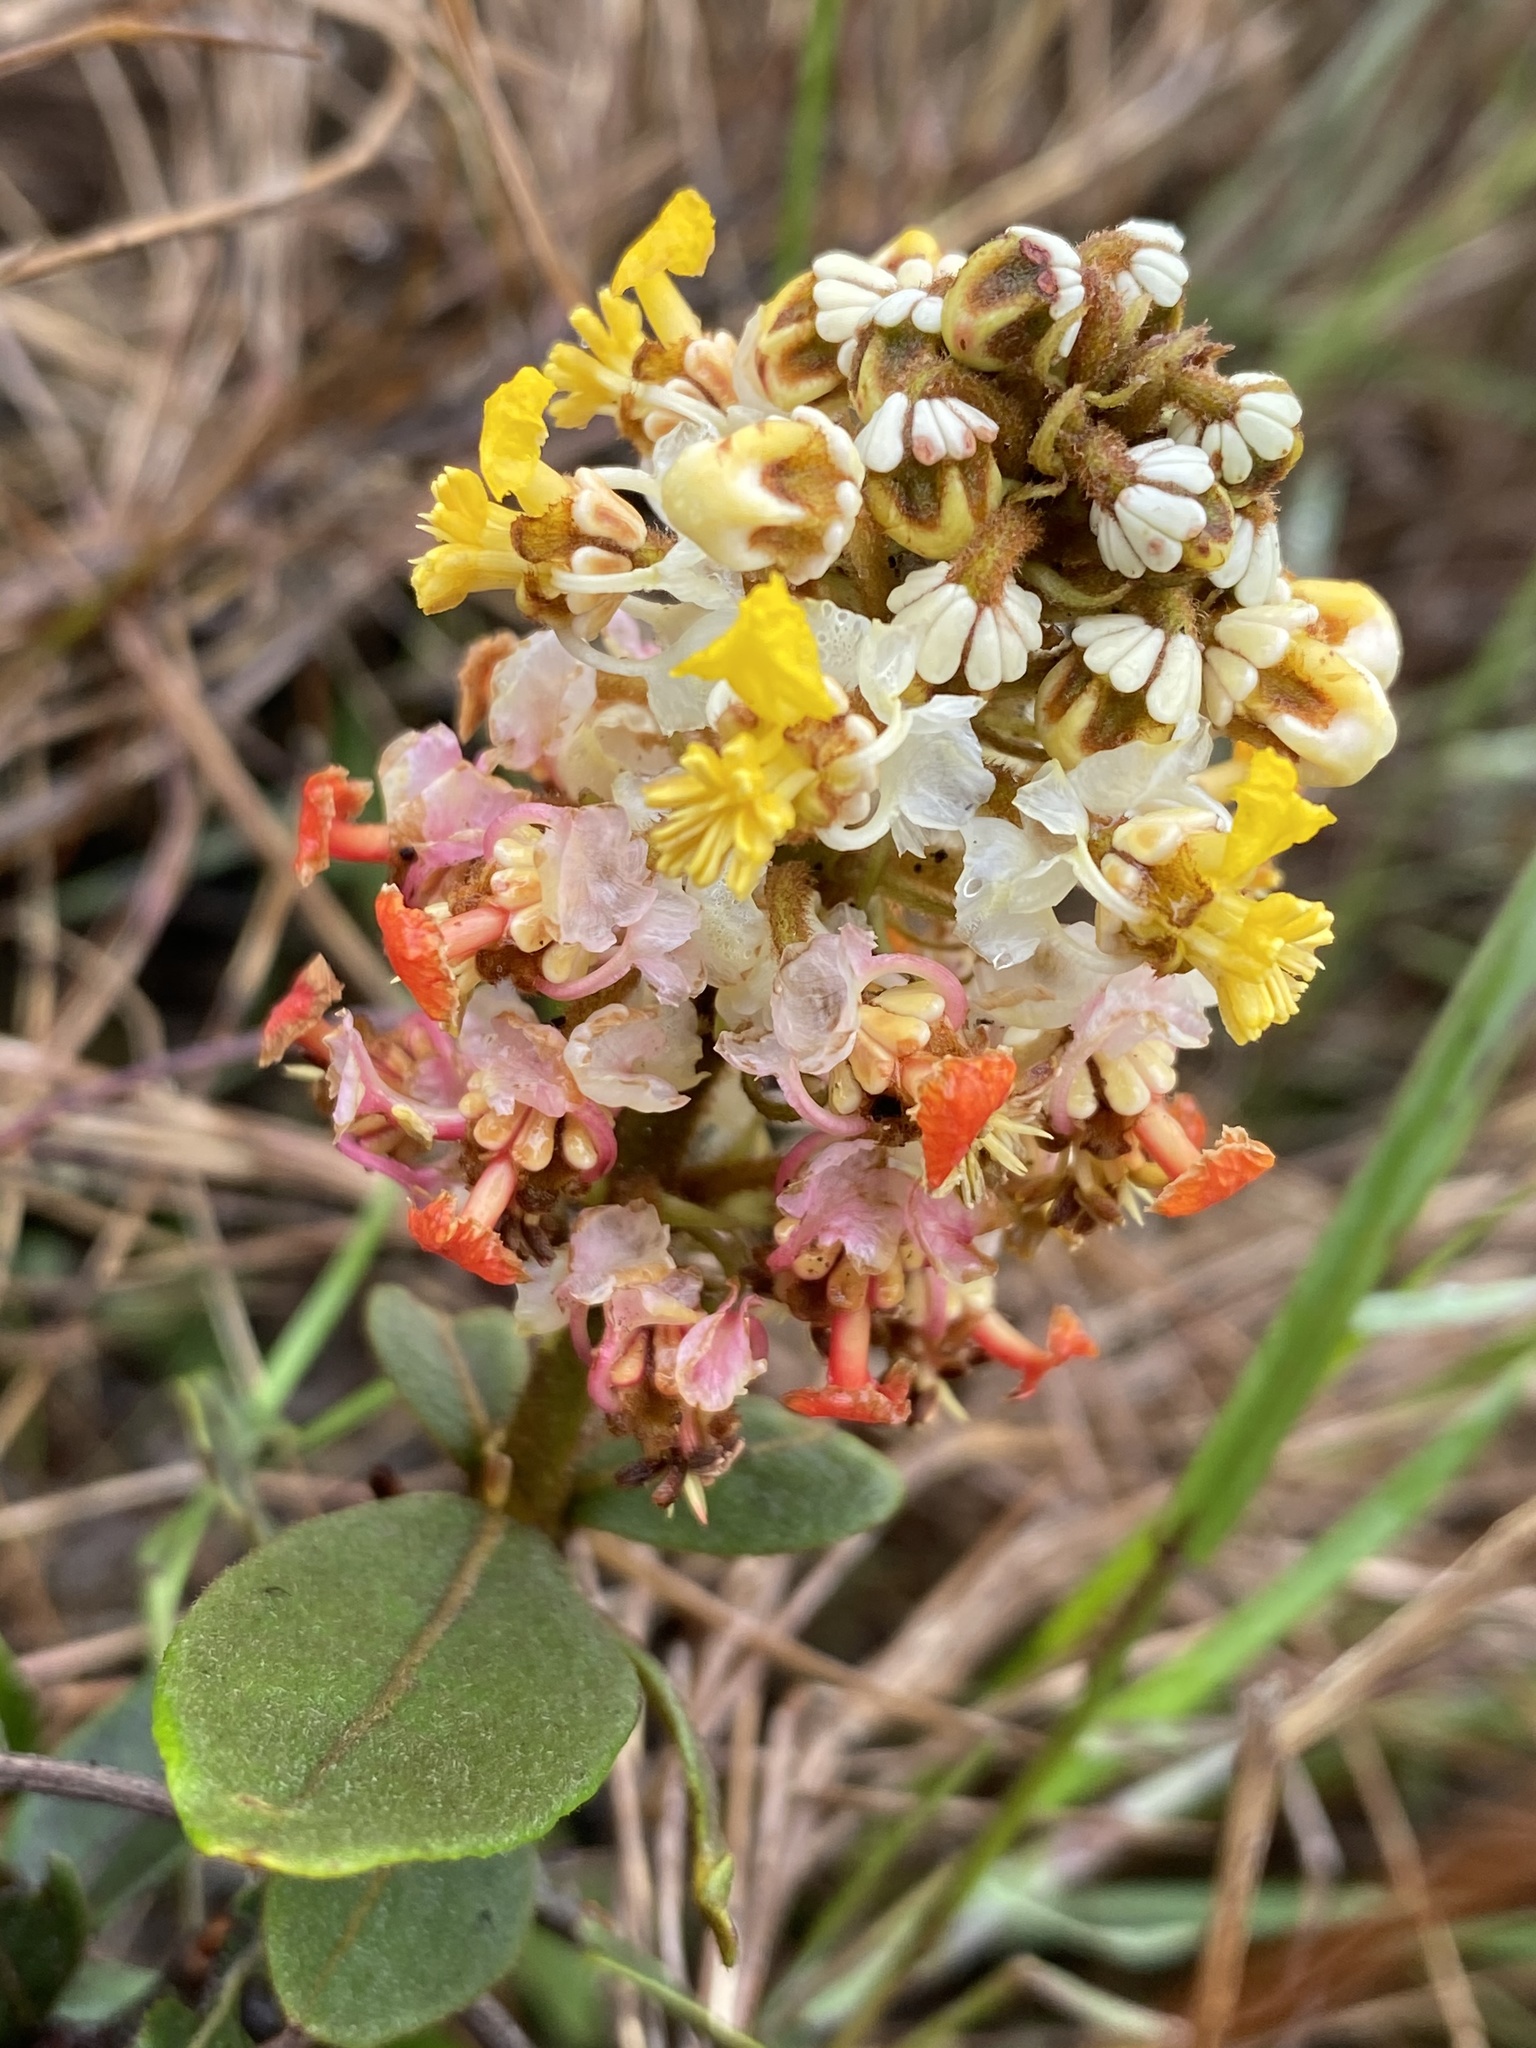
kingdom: Plantae
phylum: Tracheophyta
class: Magnoliopsida
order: Malpighiales
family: Malpighiaceae
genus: Byrsonima
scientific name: Byrsonima variabilis
